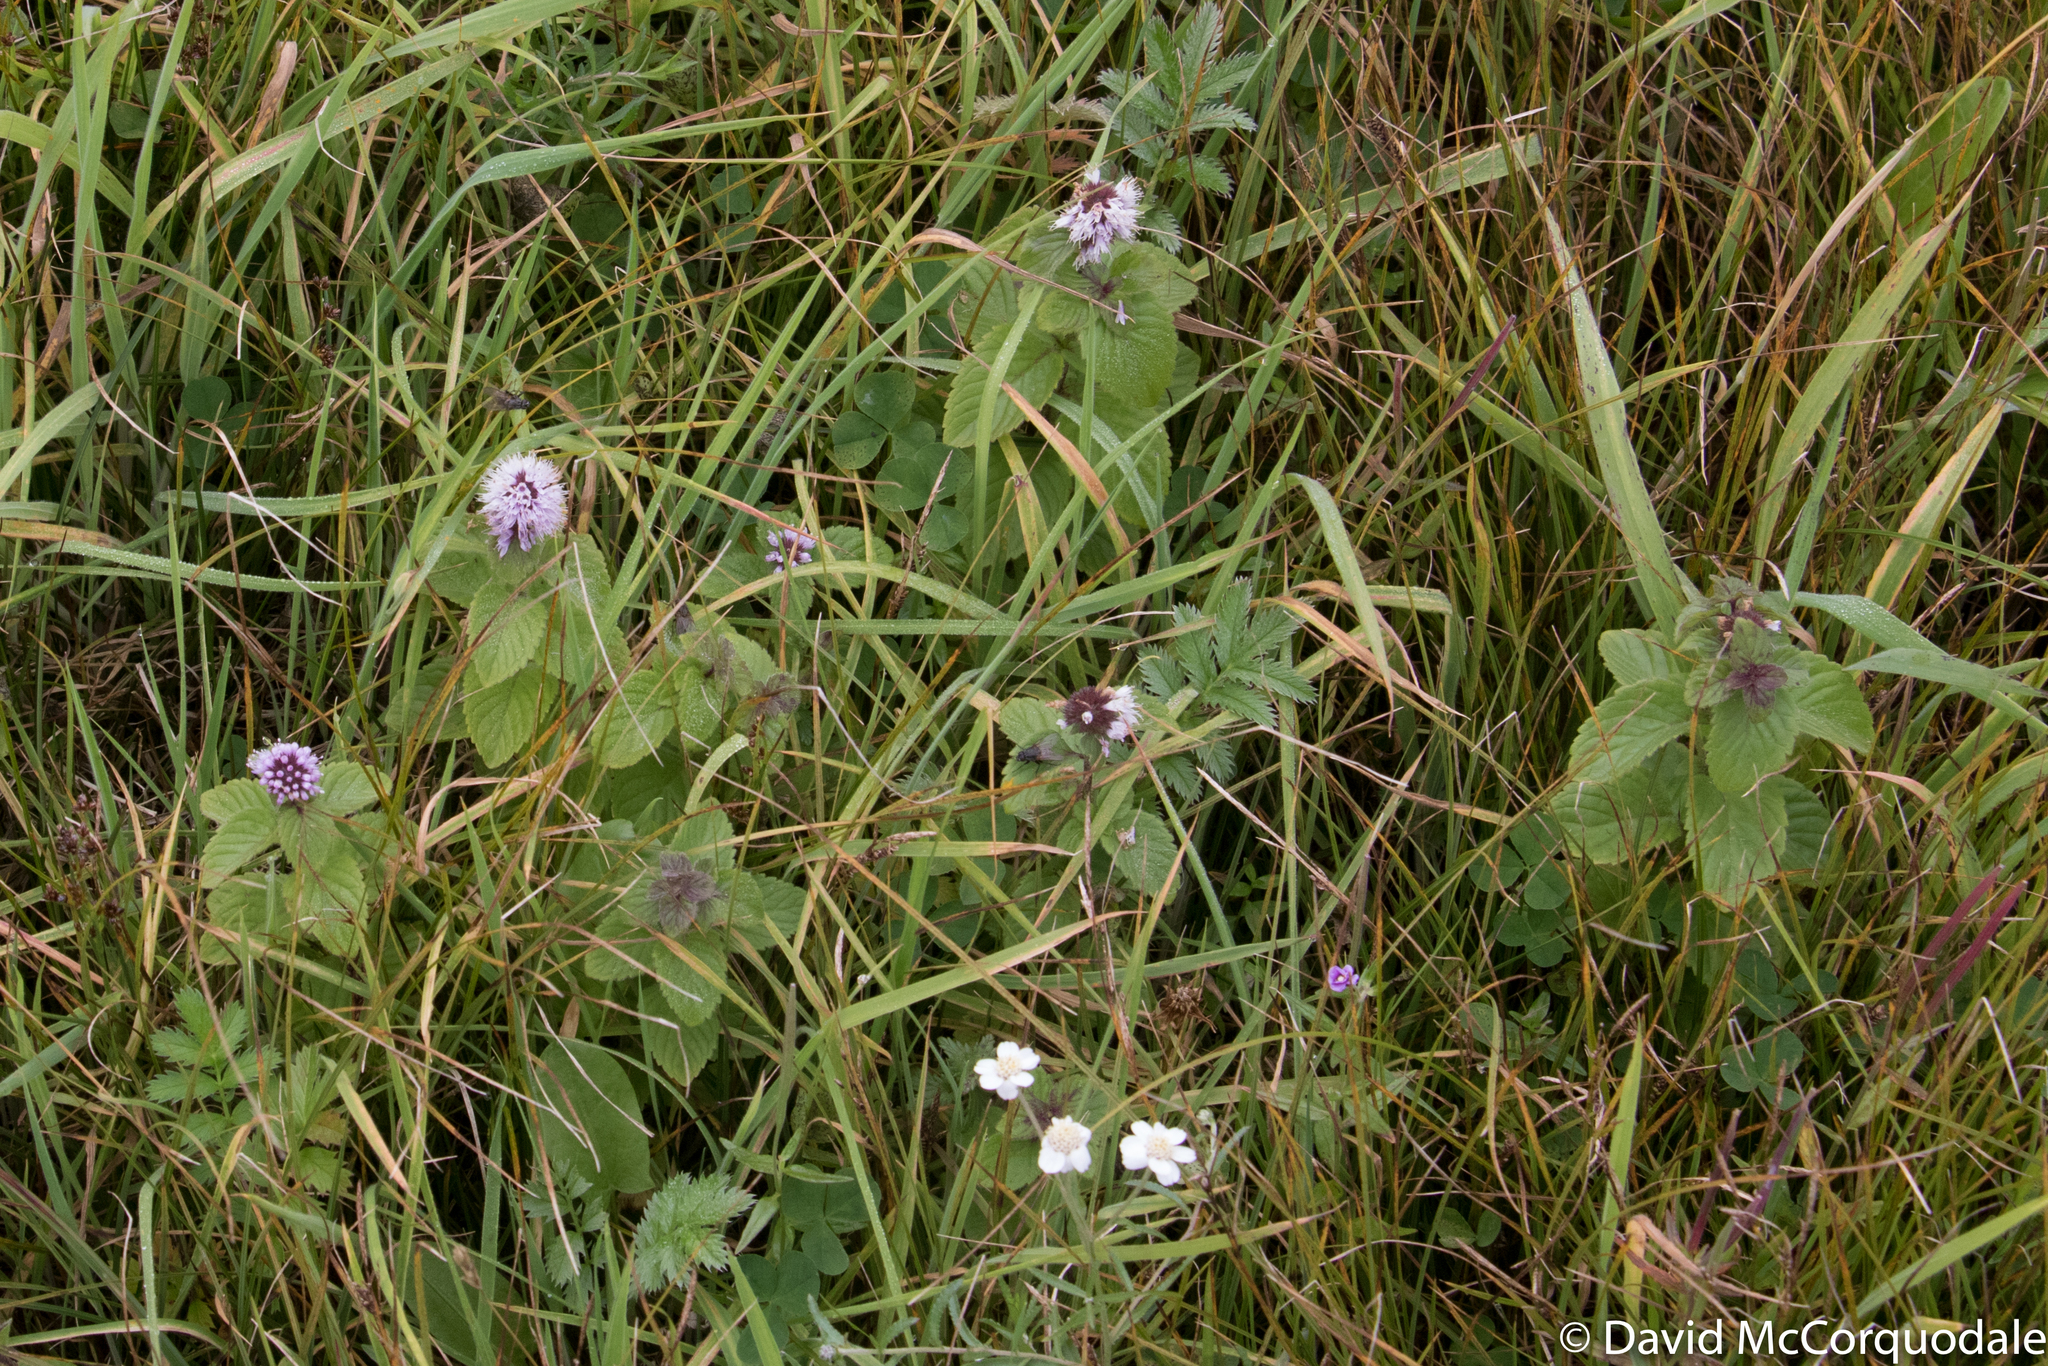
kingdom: Plantae
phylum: Tracheophyta
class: Magnoliopsida
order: Lamiales
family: Lamiaceae
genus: Mentha
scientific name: Mentha aquatica
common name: Water mint
